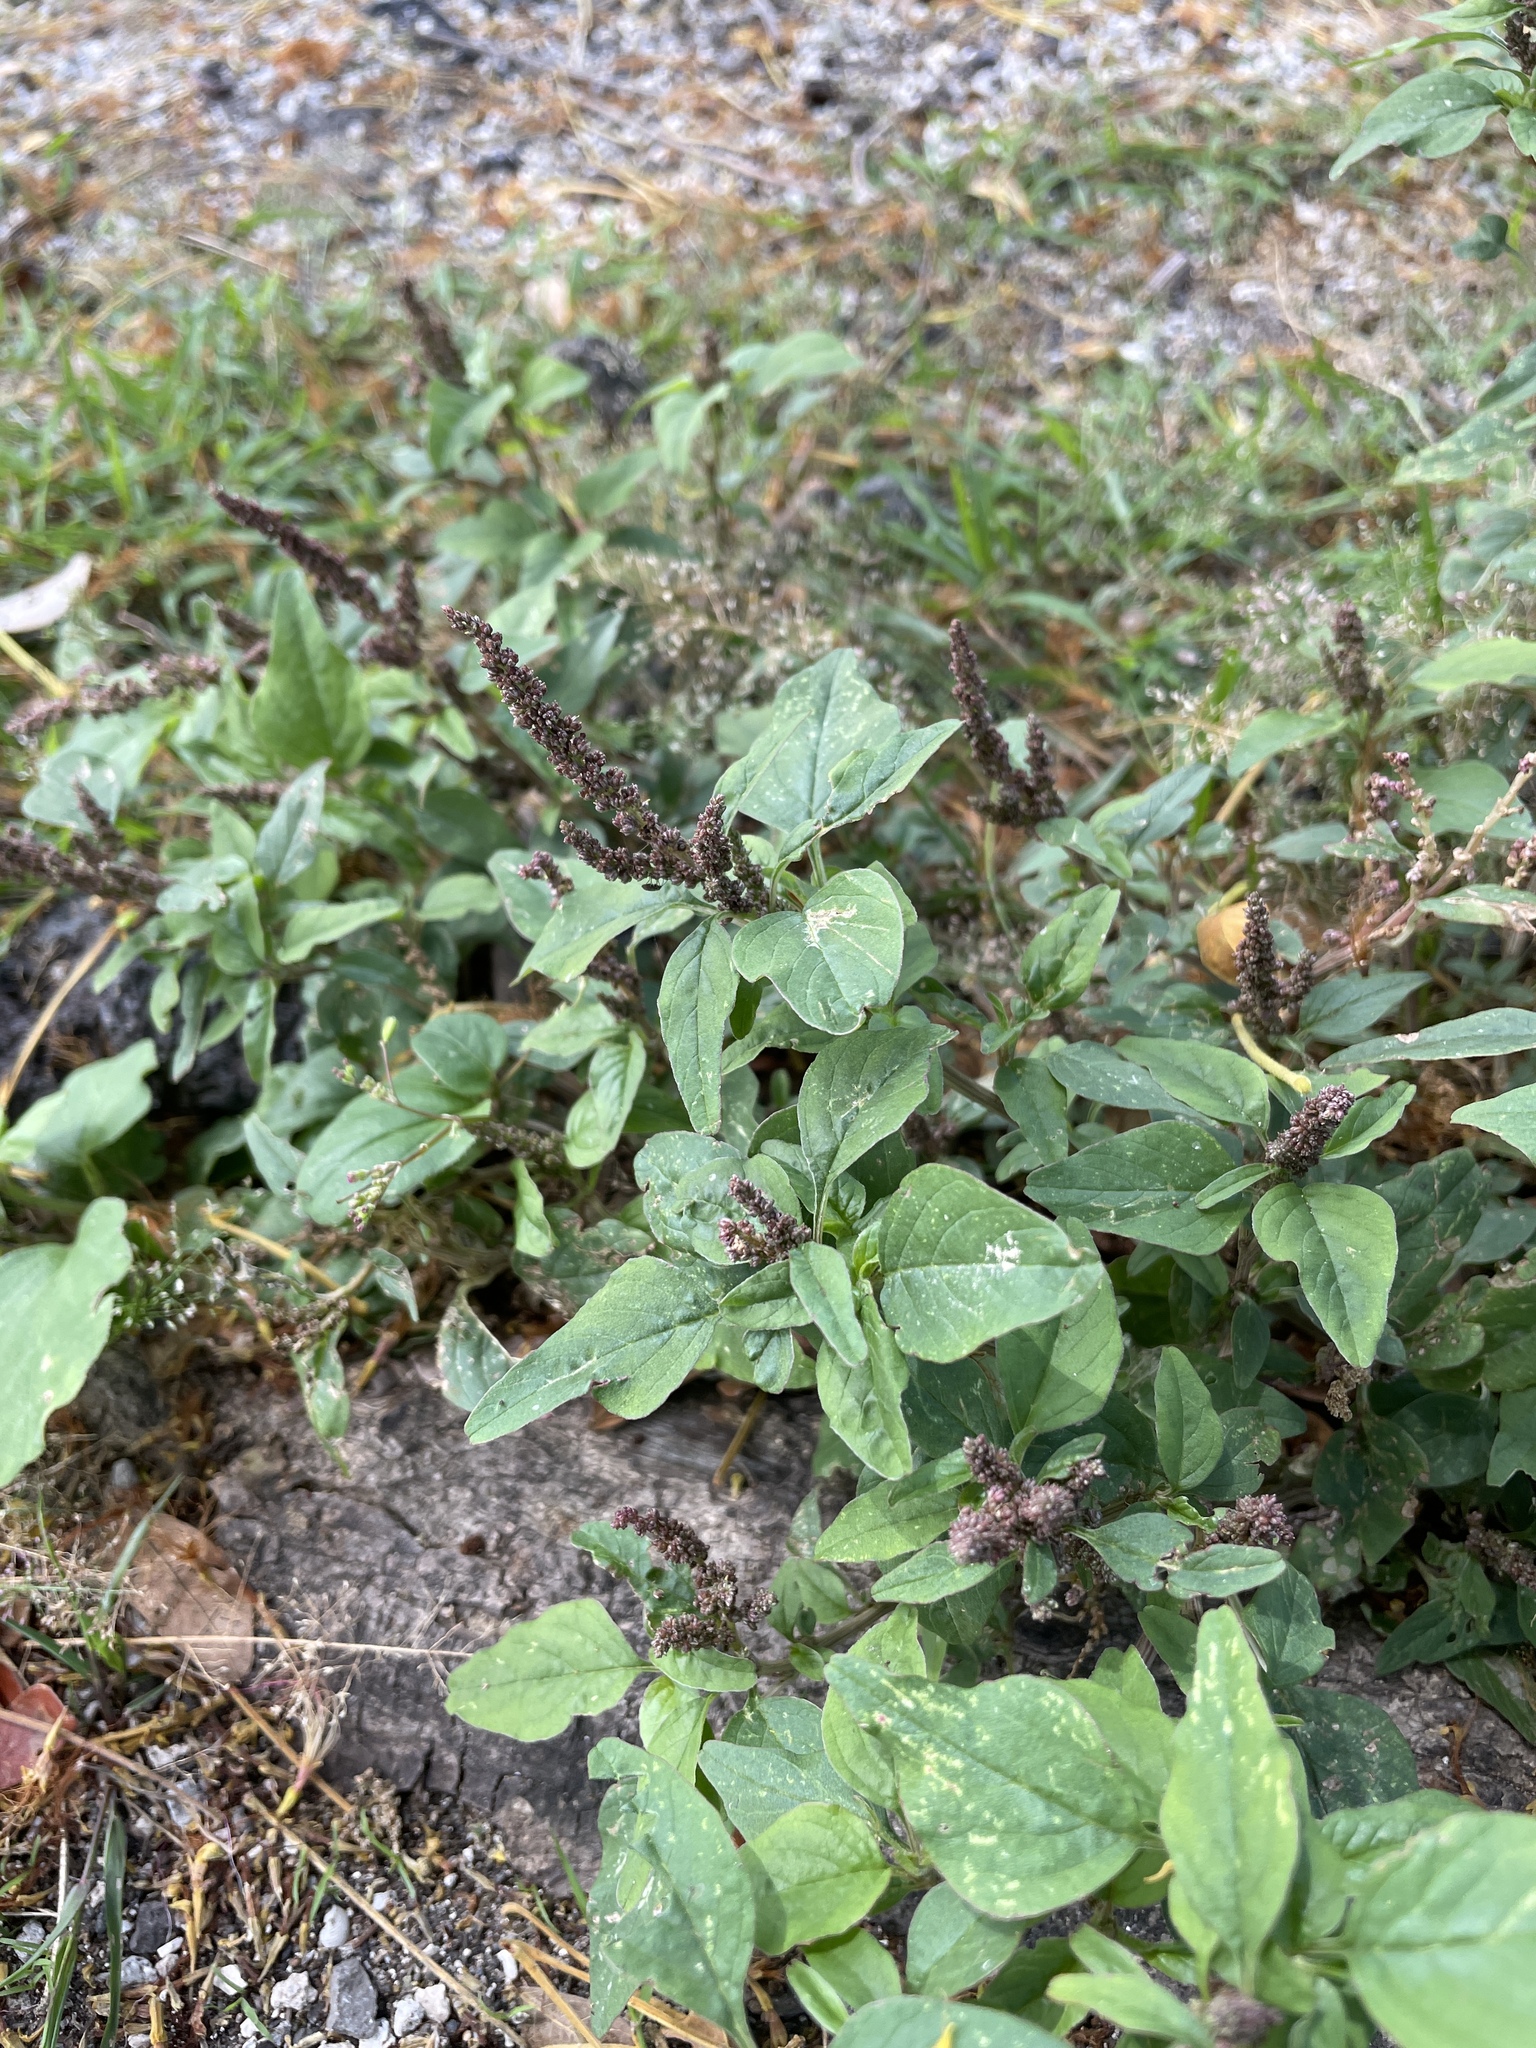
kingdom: Plantae
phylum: Tracheophyta
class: Magnoliopsida
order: Caryophyllales
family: Amaranthaceae
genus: Amaranthus
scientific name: Amaranthus viridis
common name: Slender amaranth
